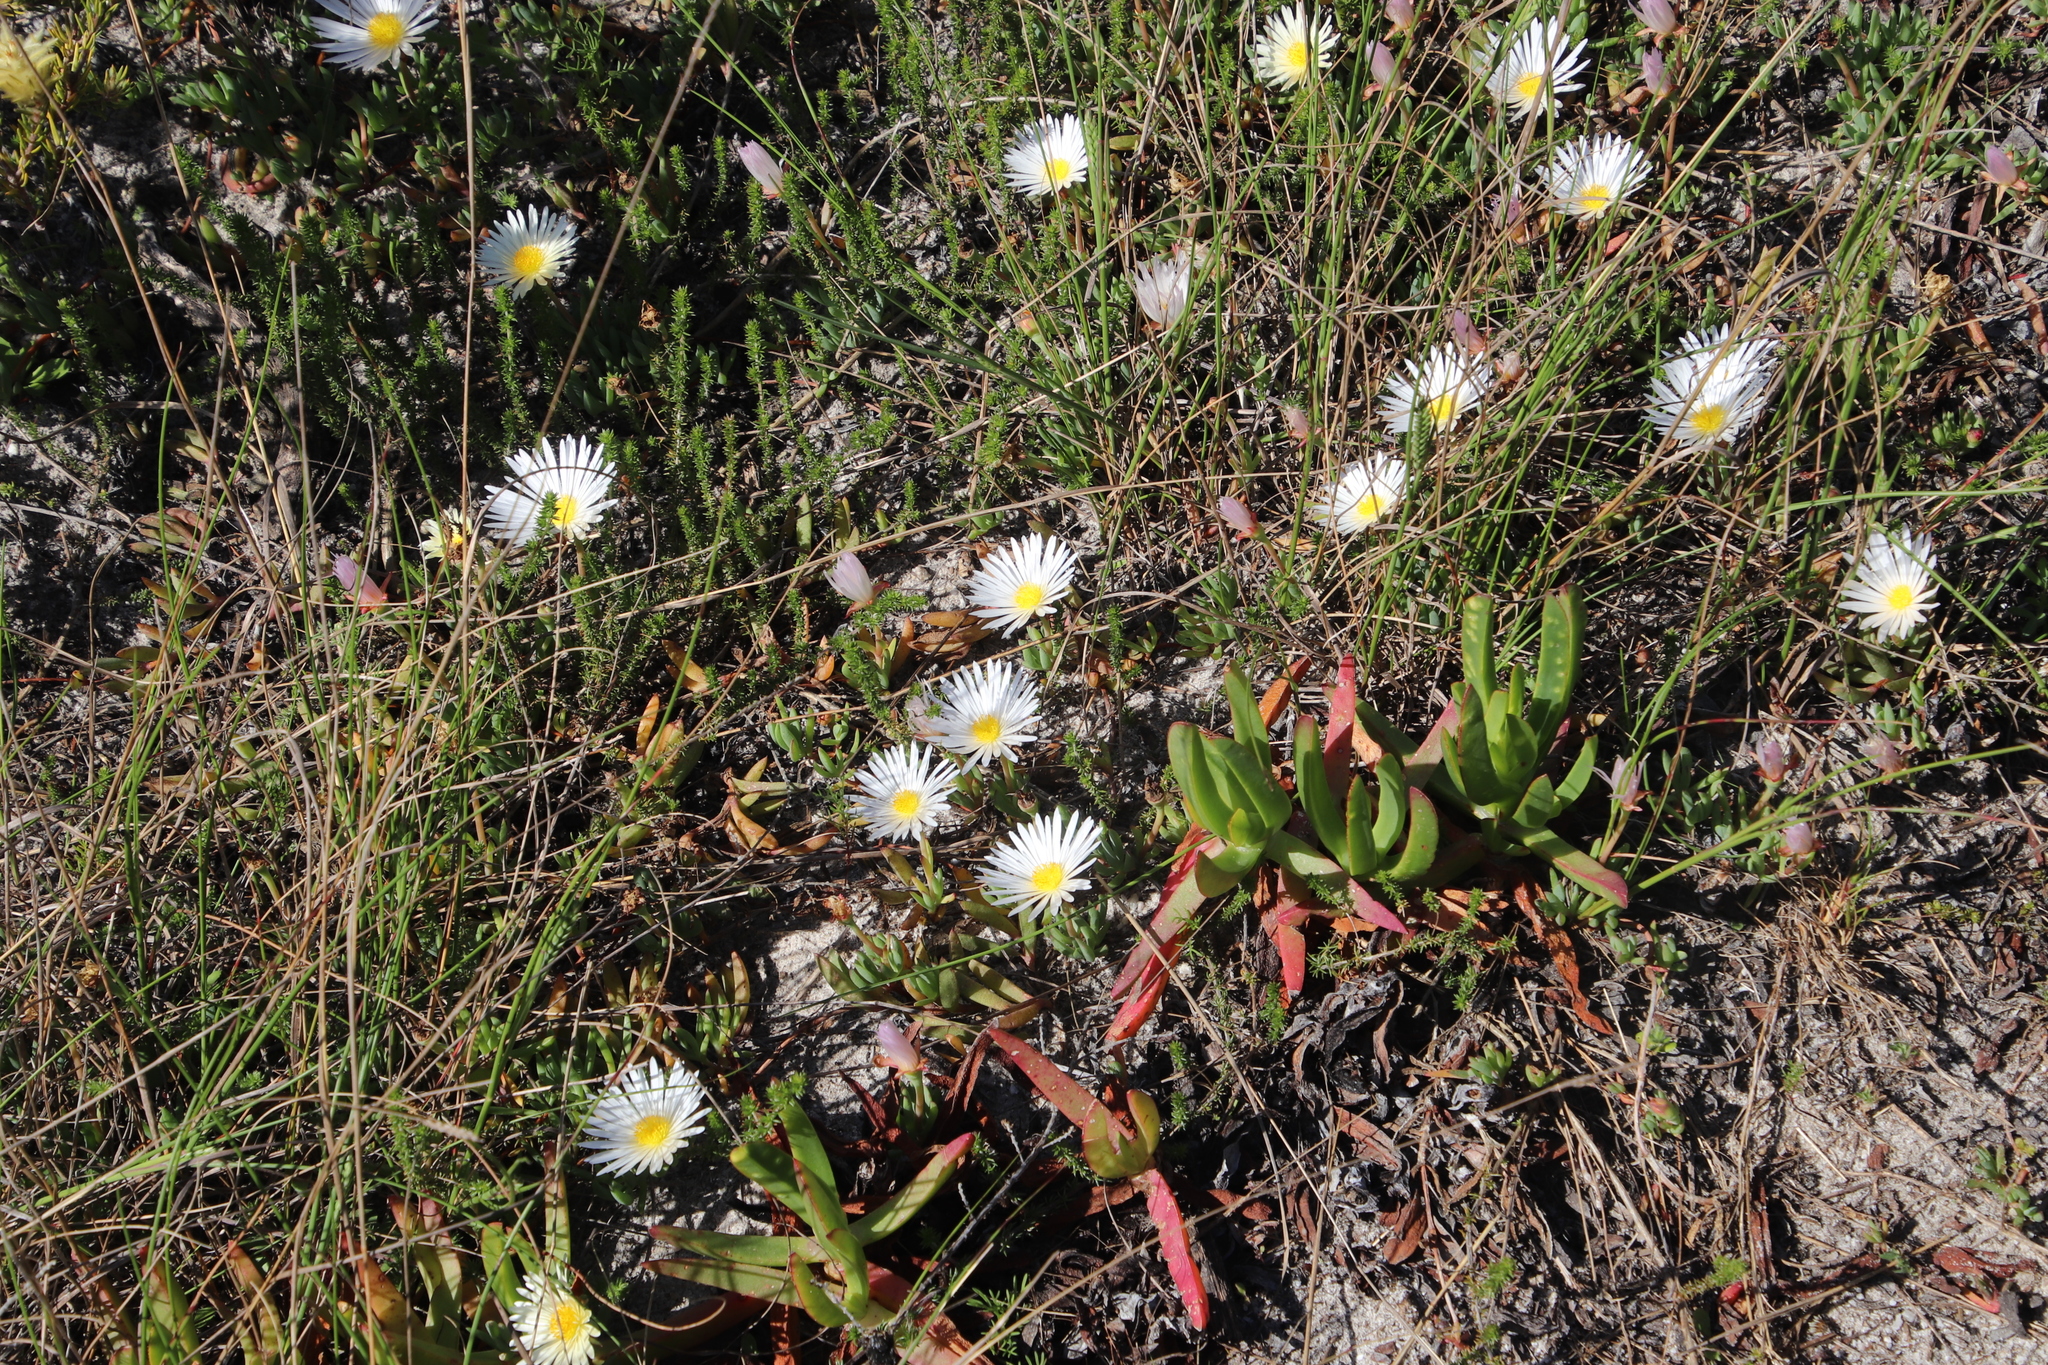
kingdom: Plantae
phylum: Tracheophyta
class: Magnoliopsida
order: Caryophyllales
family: Aizoaceae
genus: Lampranthus
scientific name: Lampranthus reptans
